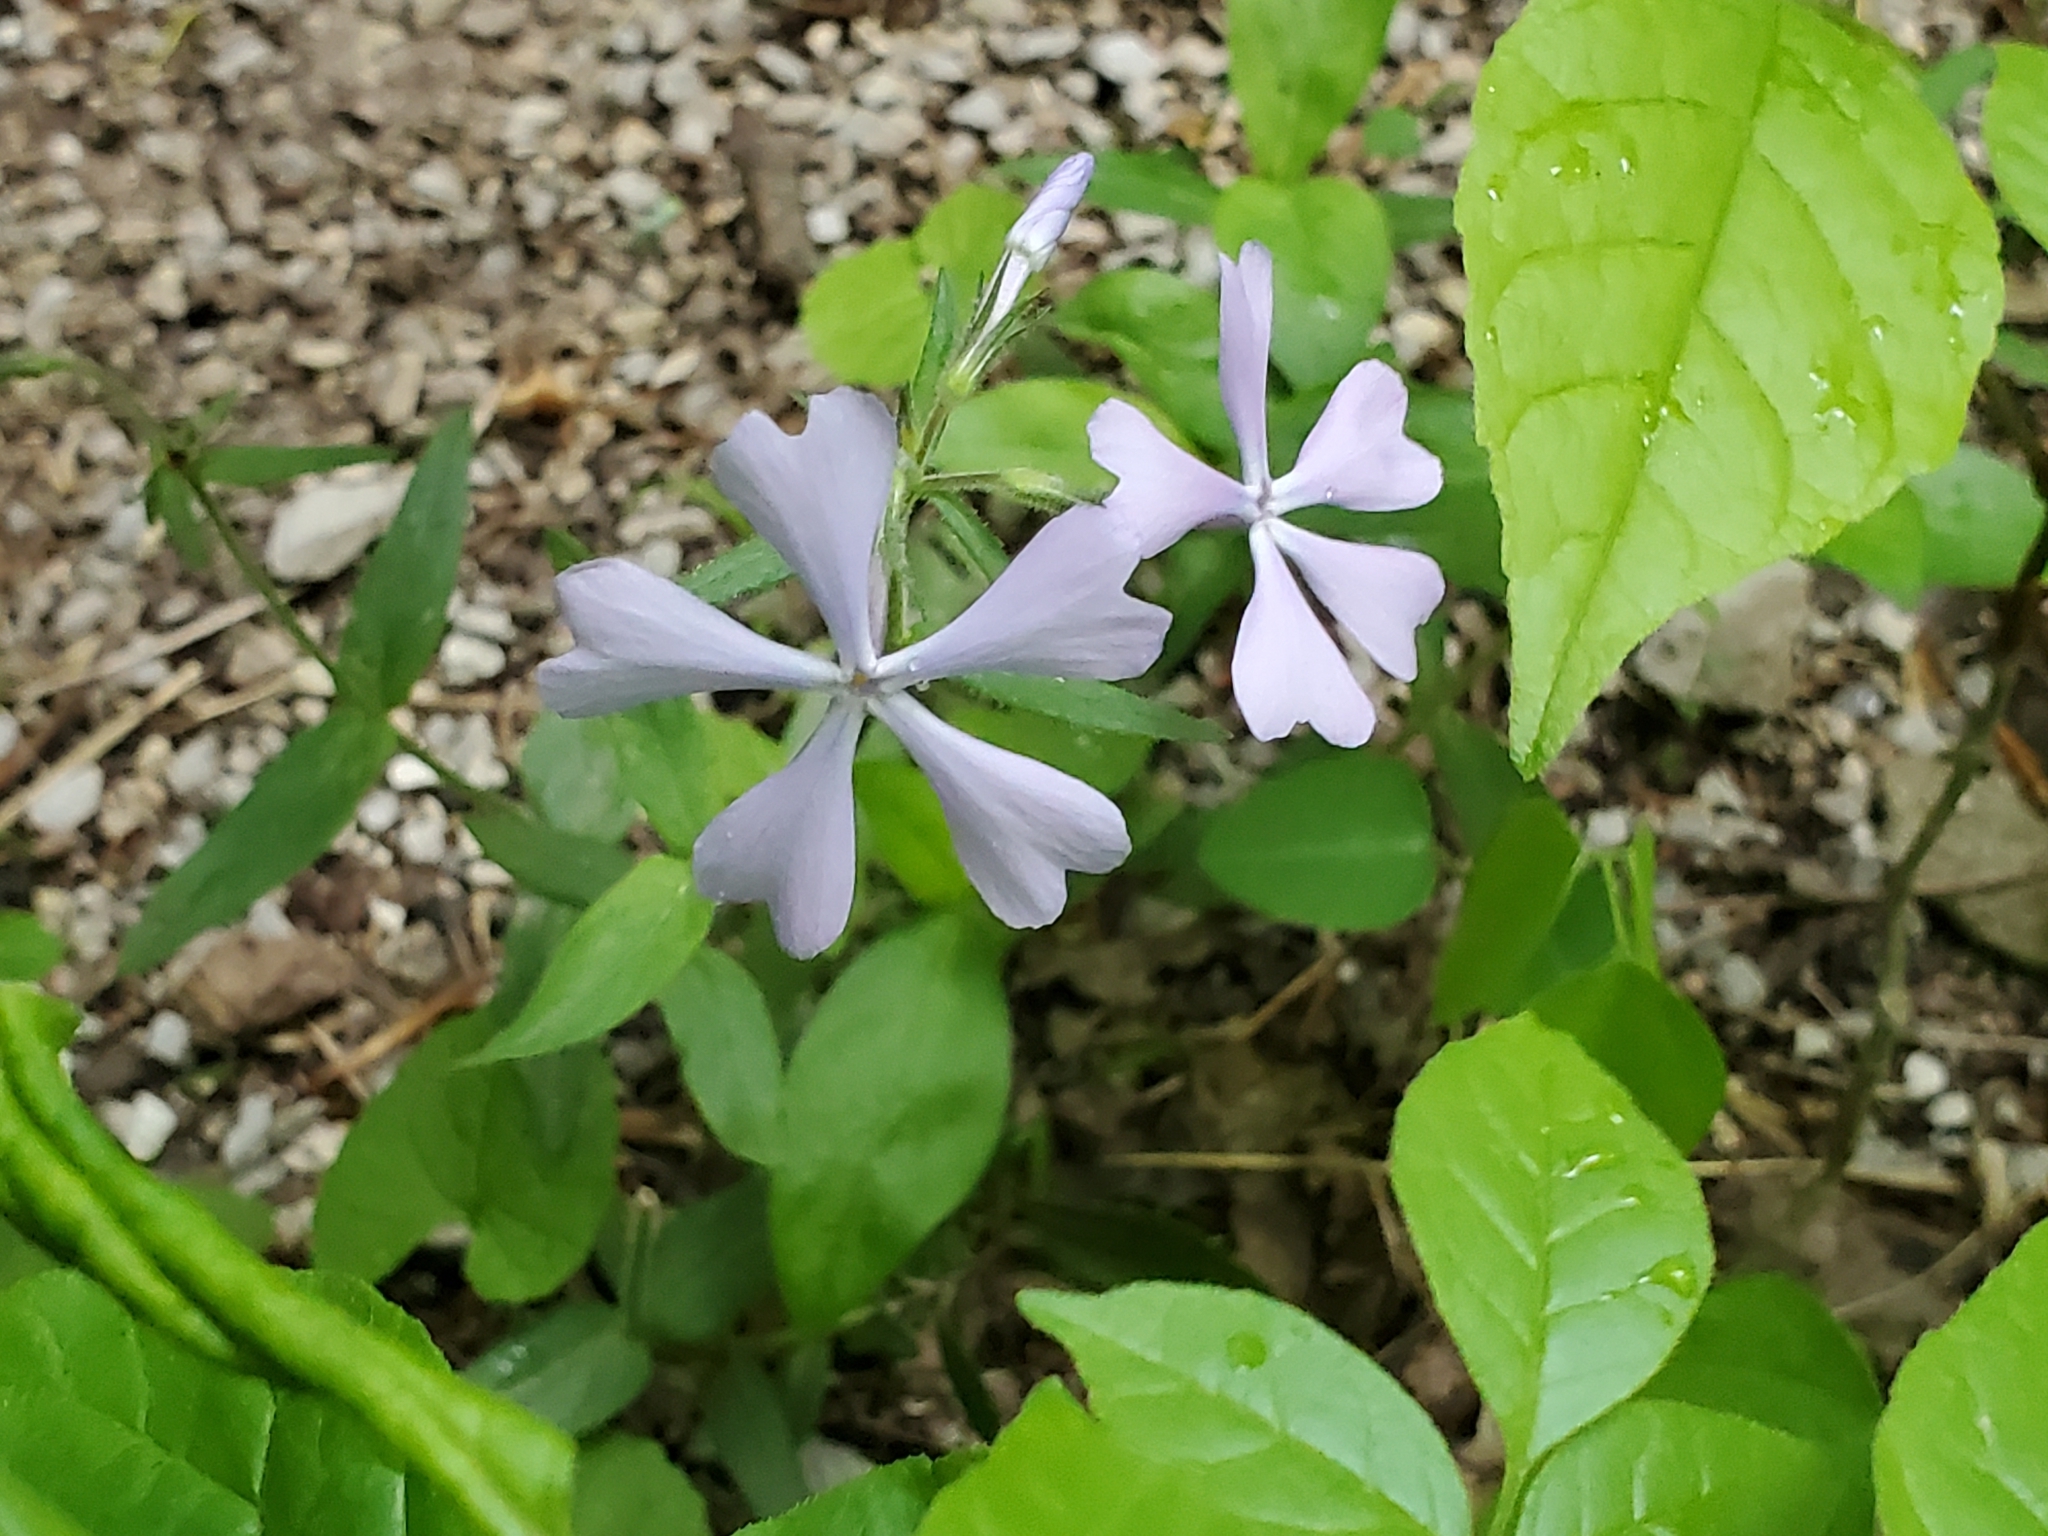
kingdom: Plantae
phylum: Tracheophyta
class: Magnoliopsida
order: Ericales
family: Polemoniaceae
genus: Phlox
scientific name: Phlox divaricata
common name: Blue phlox
